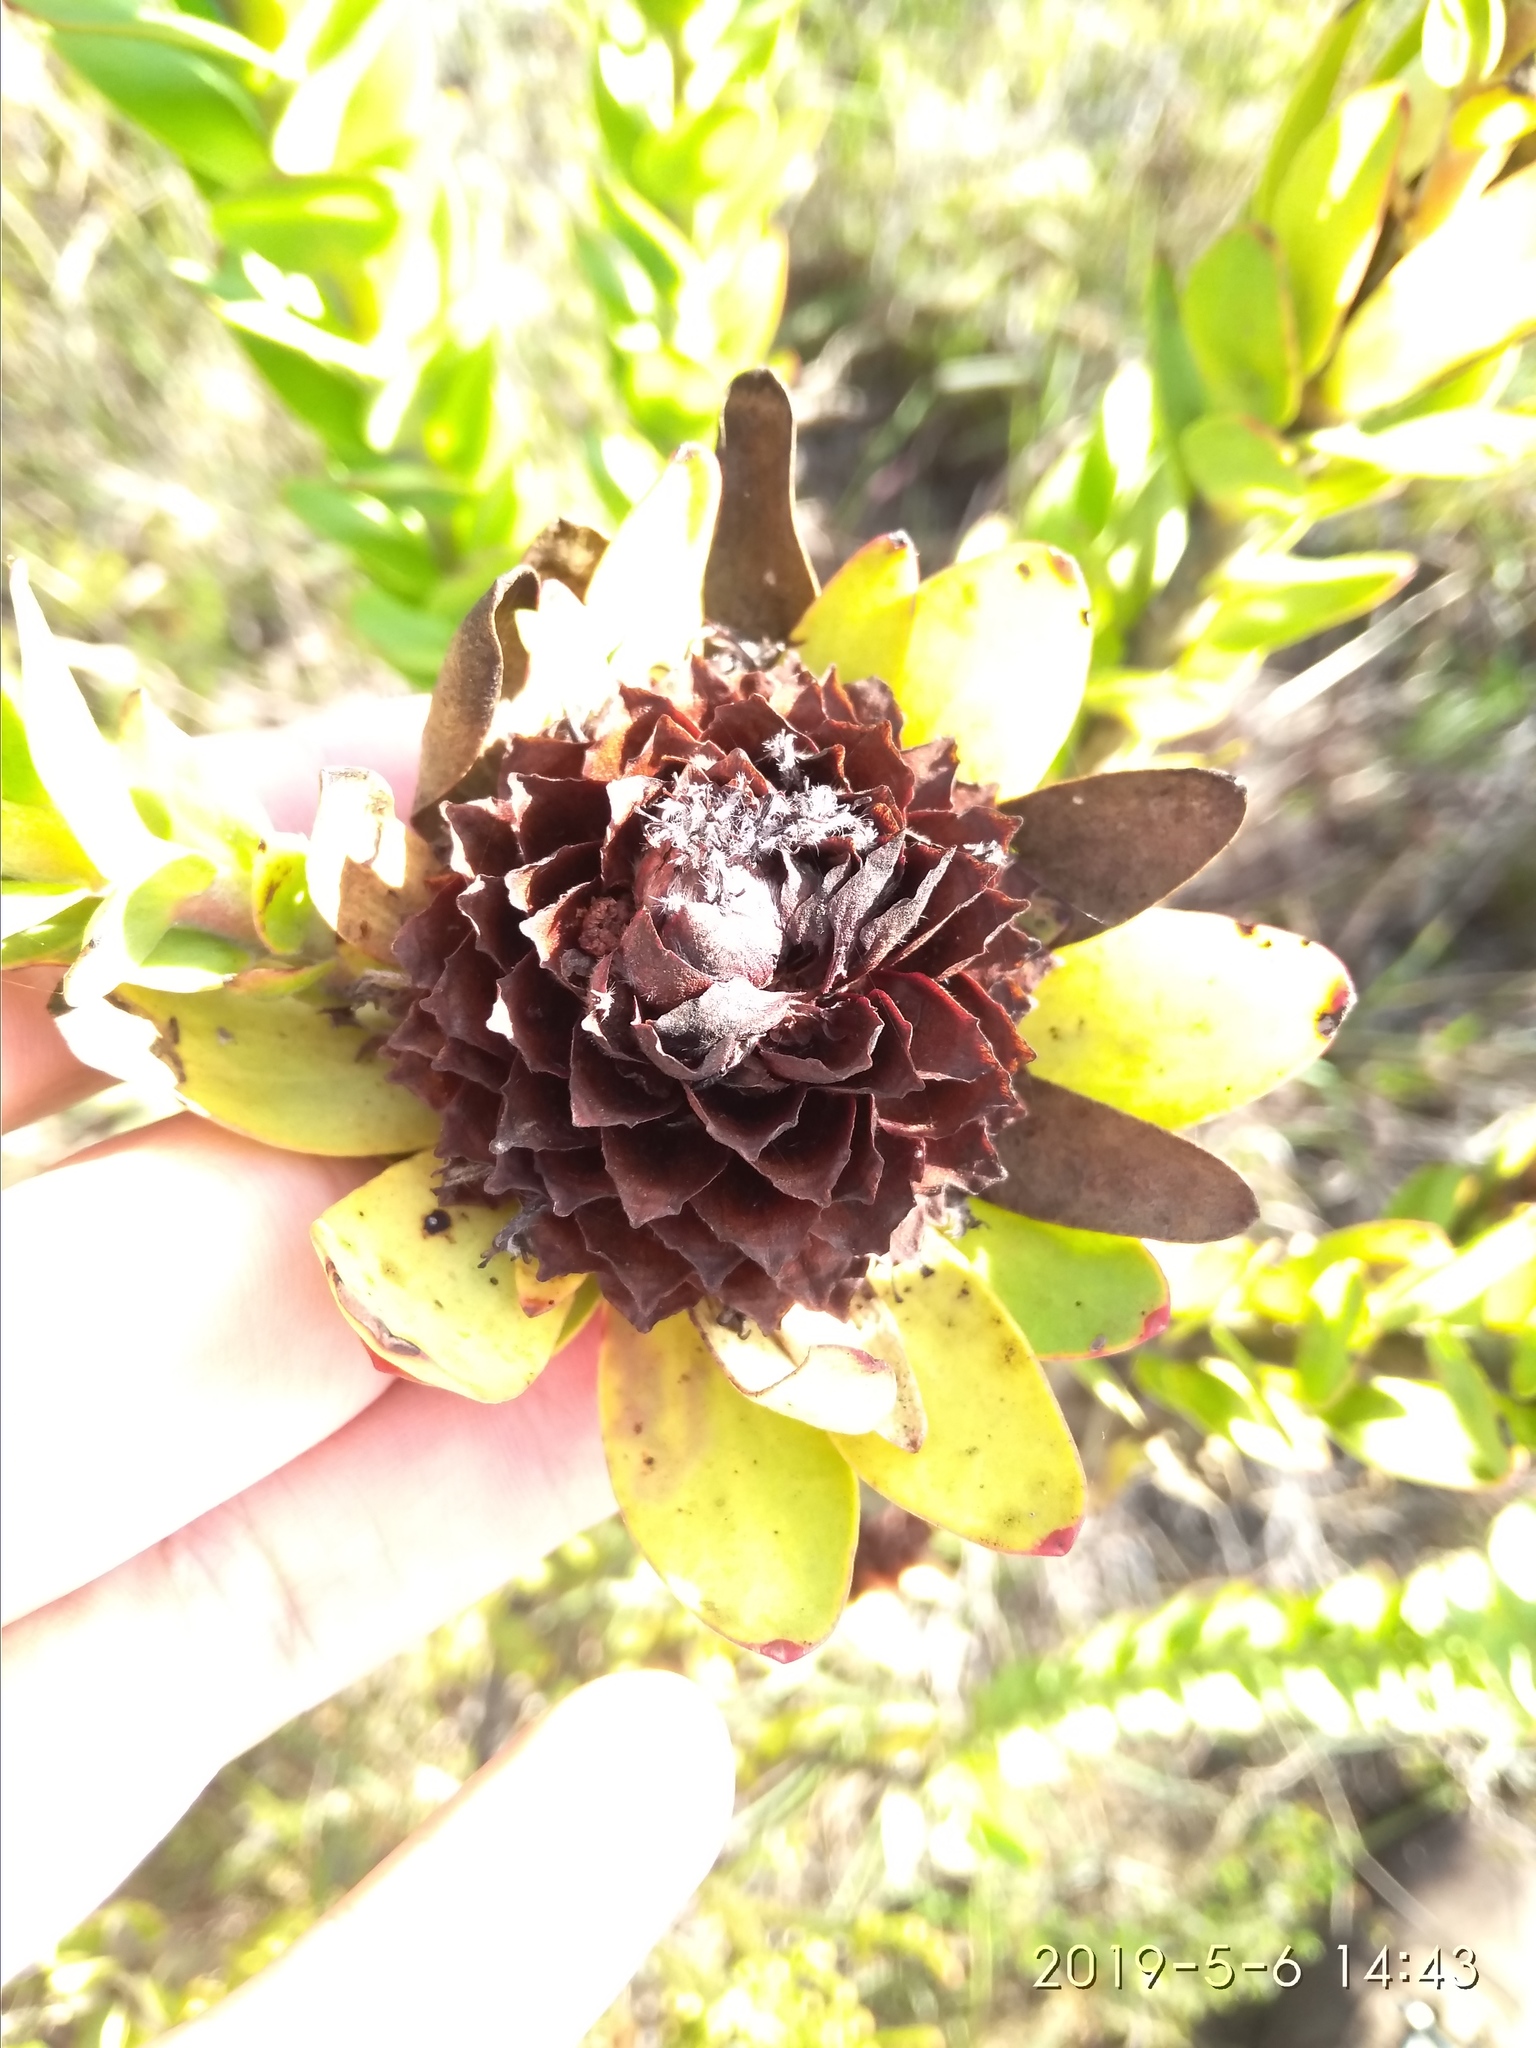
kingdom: Plantae
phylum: Tracheophyta
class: Magnoliopsida
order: Proteales
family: Proteaceae
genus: Leucadendron
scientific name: Leucadendron elimense
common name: Elim conebush
